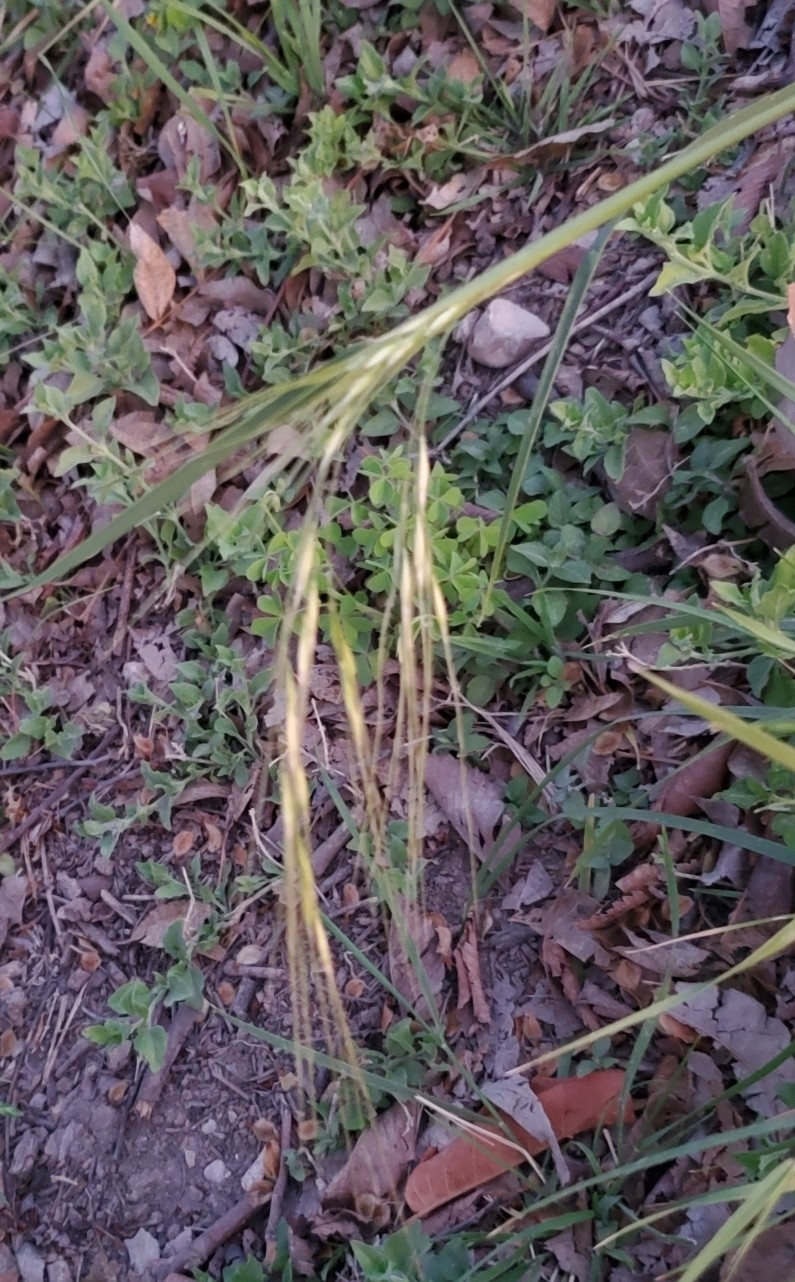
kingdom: Plantae
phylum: Tracheophyta
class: Liliopsida
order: Poales
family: Poaceae
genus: Nassella
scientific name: Nassella leucotricha
